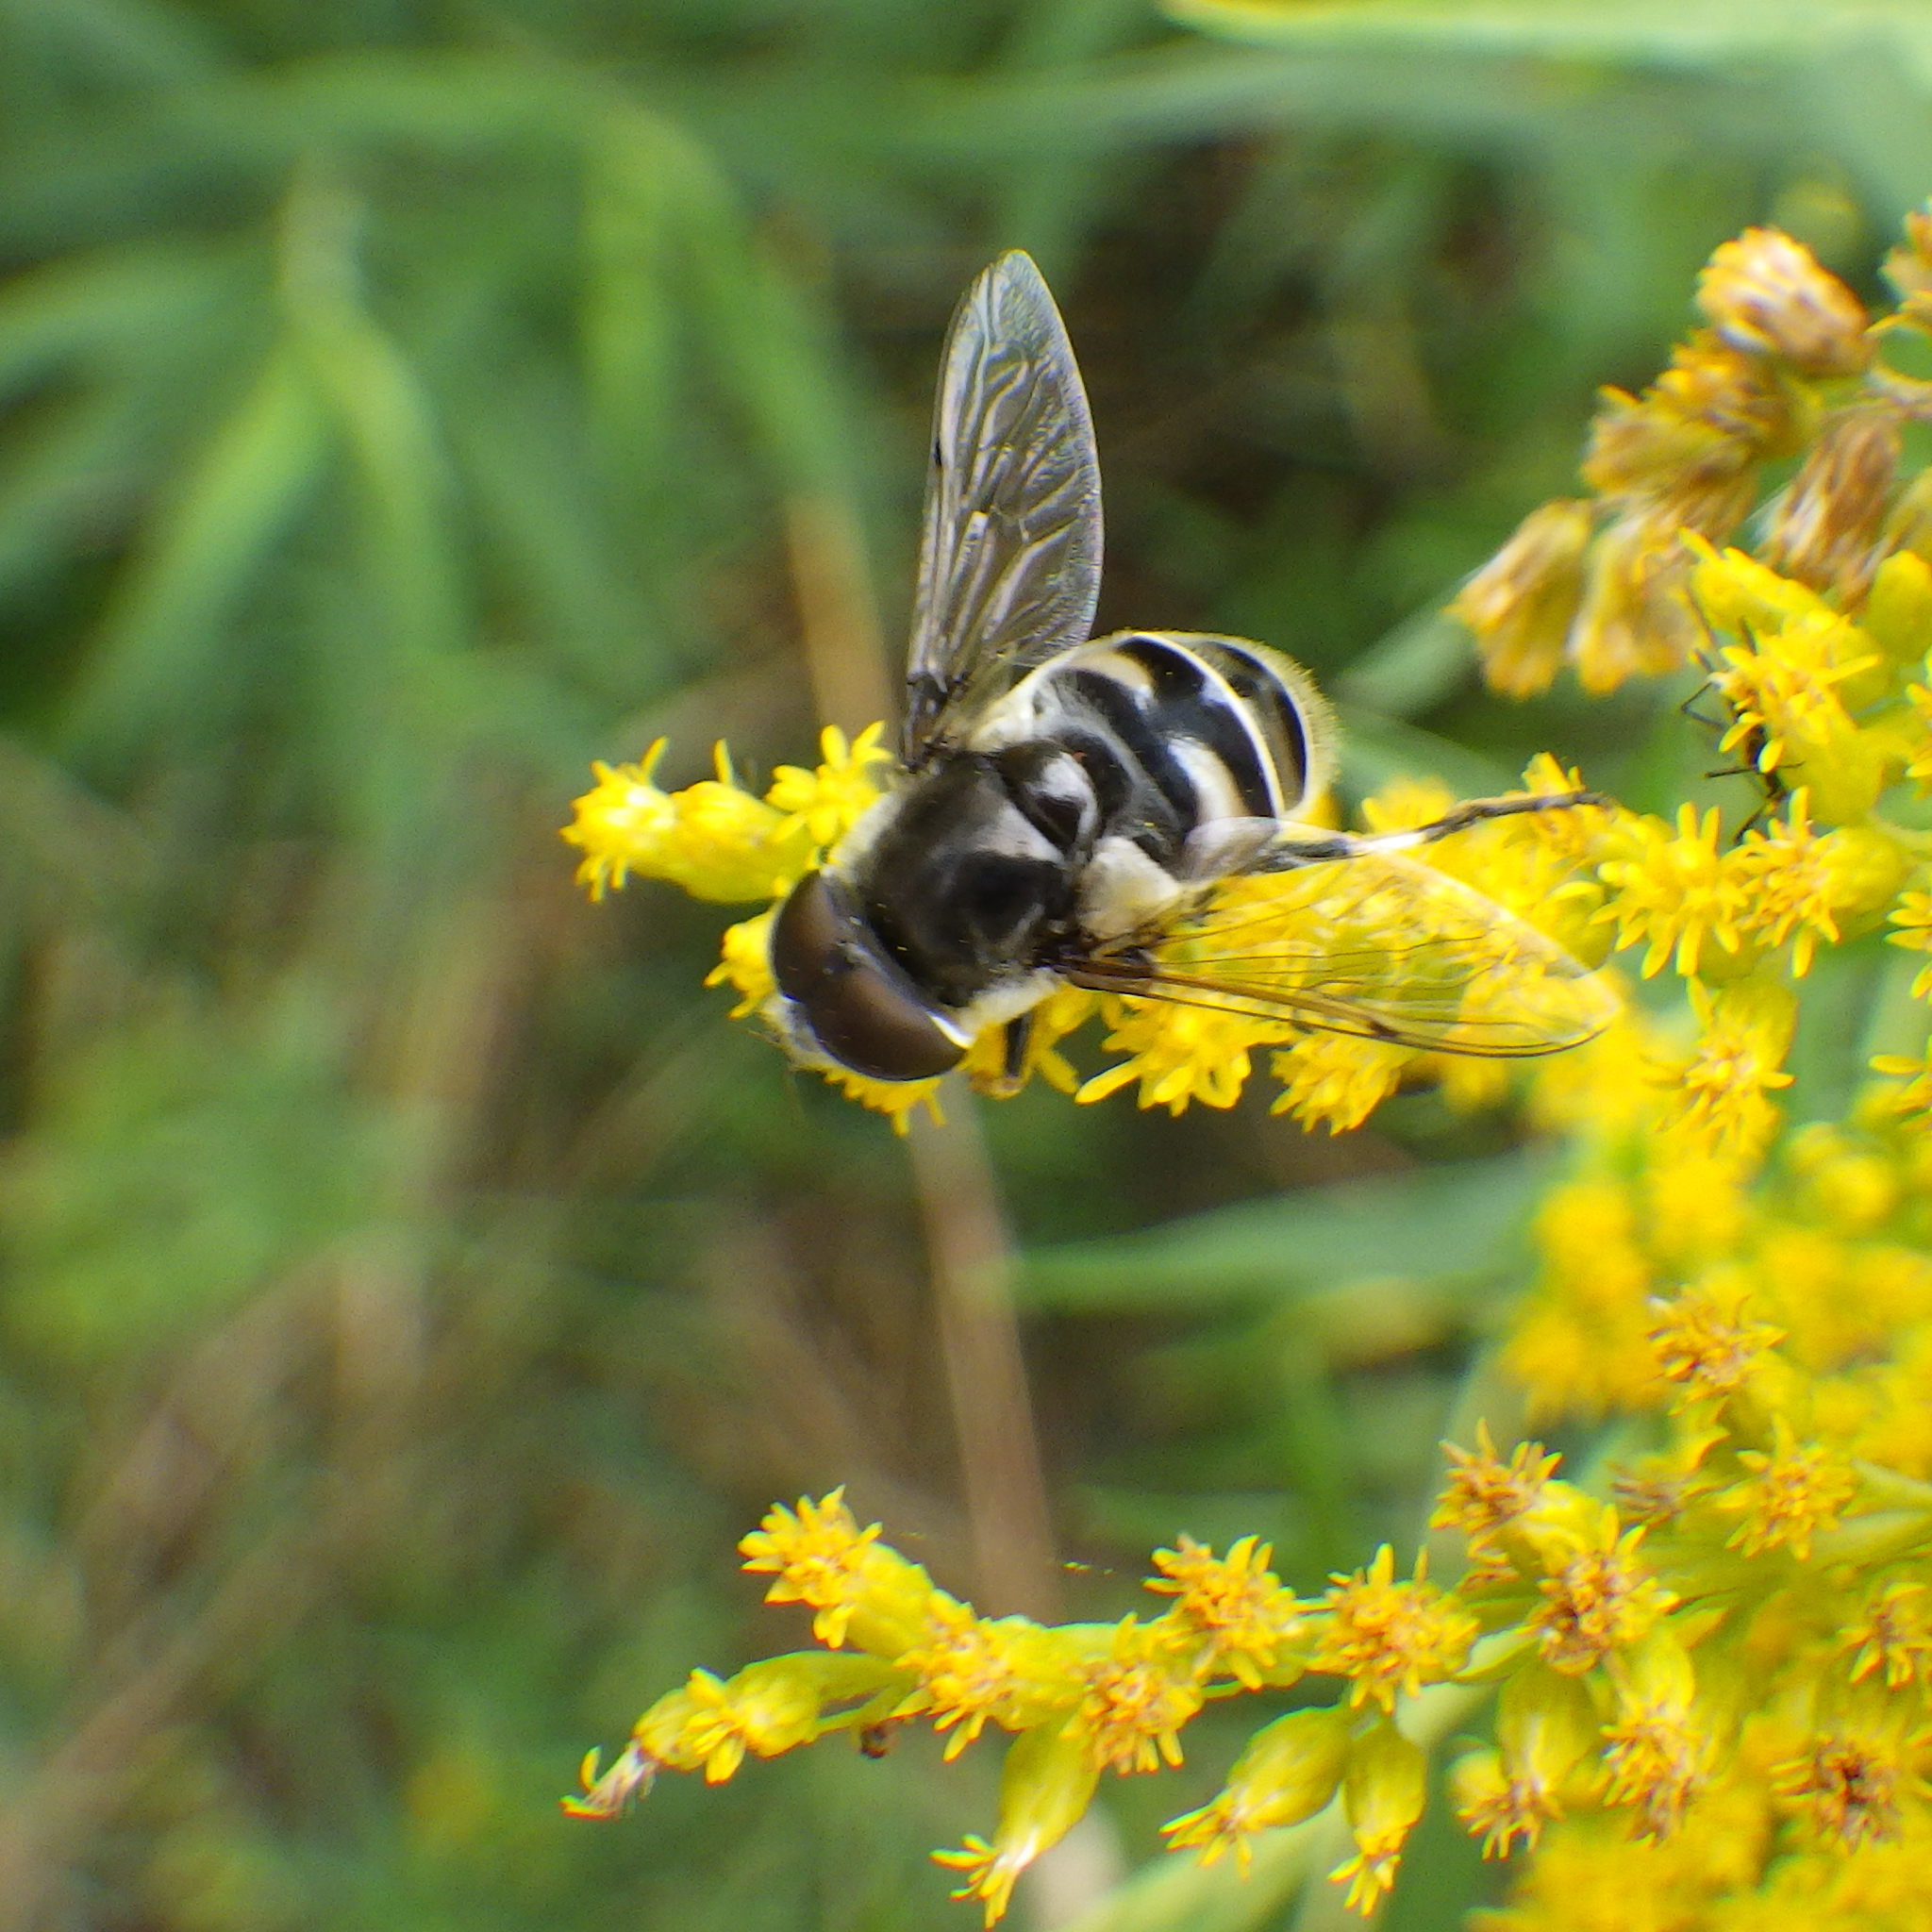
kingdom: Animalia
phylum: Arthropoda
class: Insecta
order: Diptera
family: Syrphidae
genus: Eristalis
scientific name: Eristalis dimidiata
